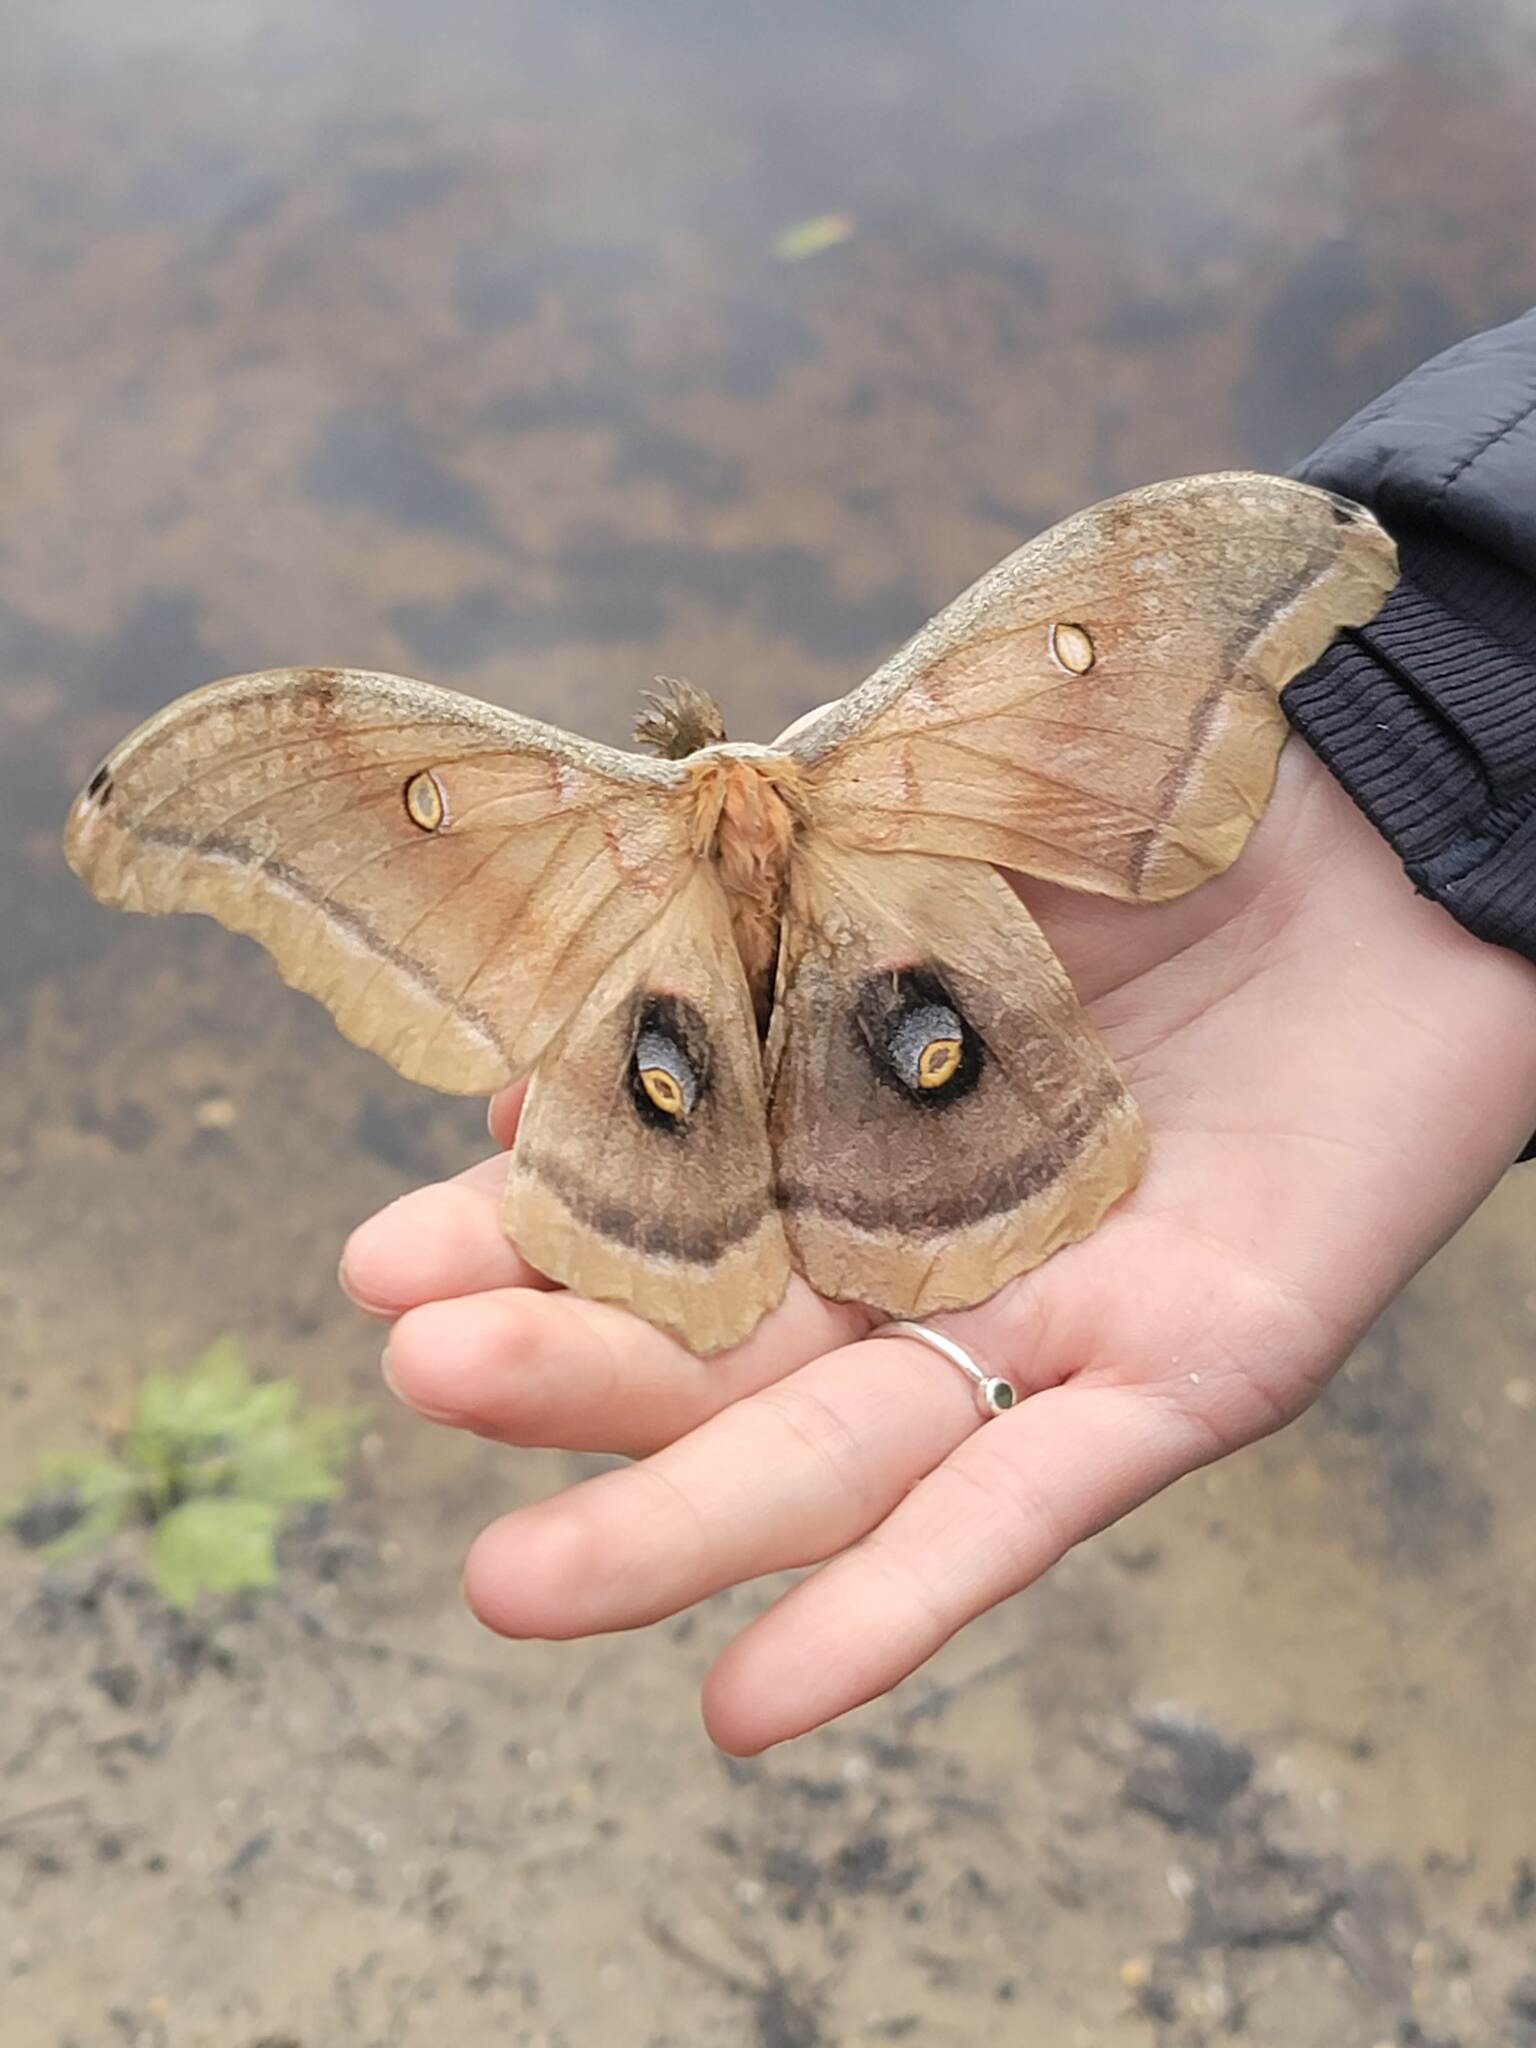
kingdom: Animalia
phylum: Arthropoda
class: Insecta
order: Lepidoptera
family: Saturniidae
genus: Antheraea
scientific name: Antheraea polyphemus
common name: Polyphemus moth
